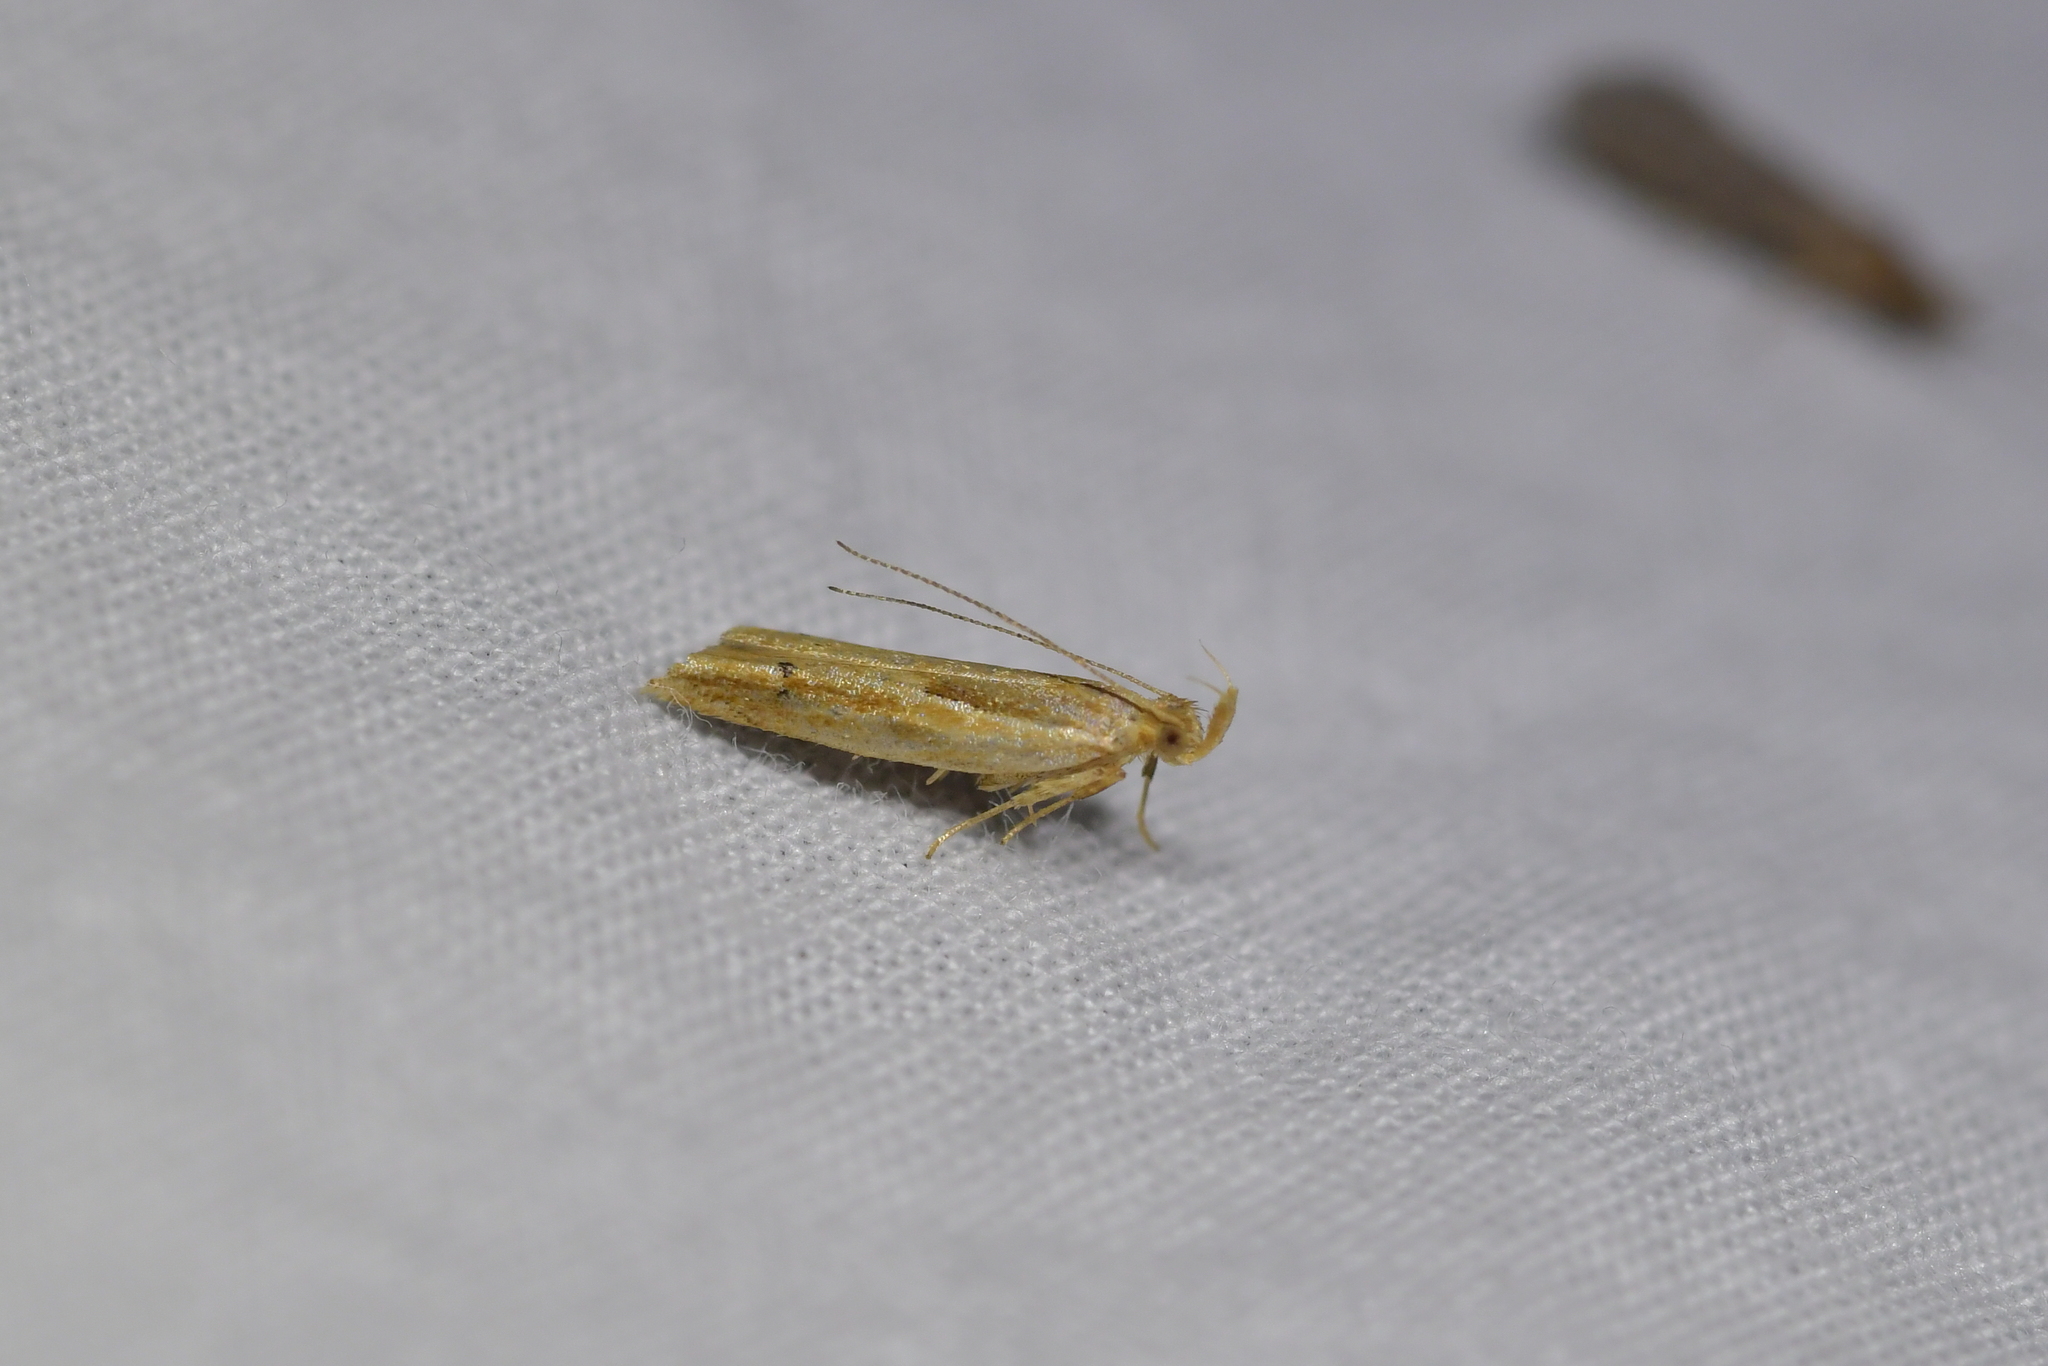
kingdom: Animalia
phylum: Arthropoda
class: Insecta
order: Lepidoptera
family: Depressariidae
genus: Eutorna
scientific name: Eutorna symmorpha
